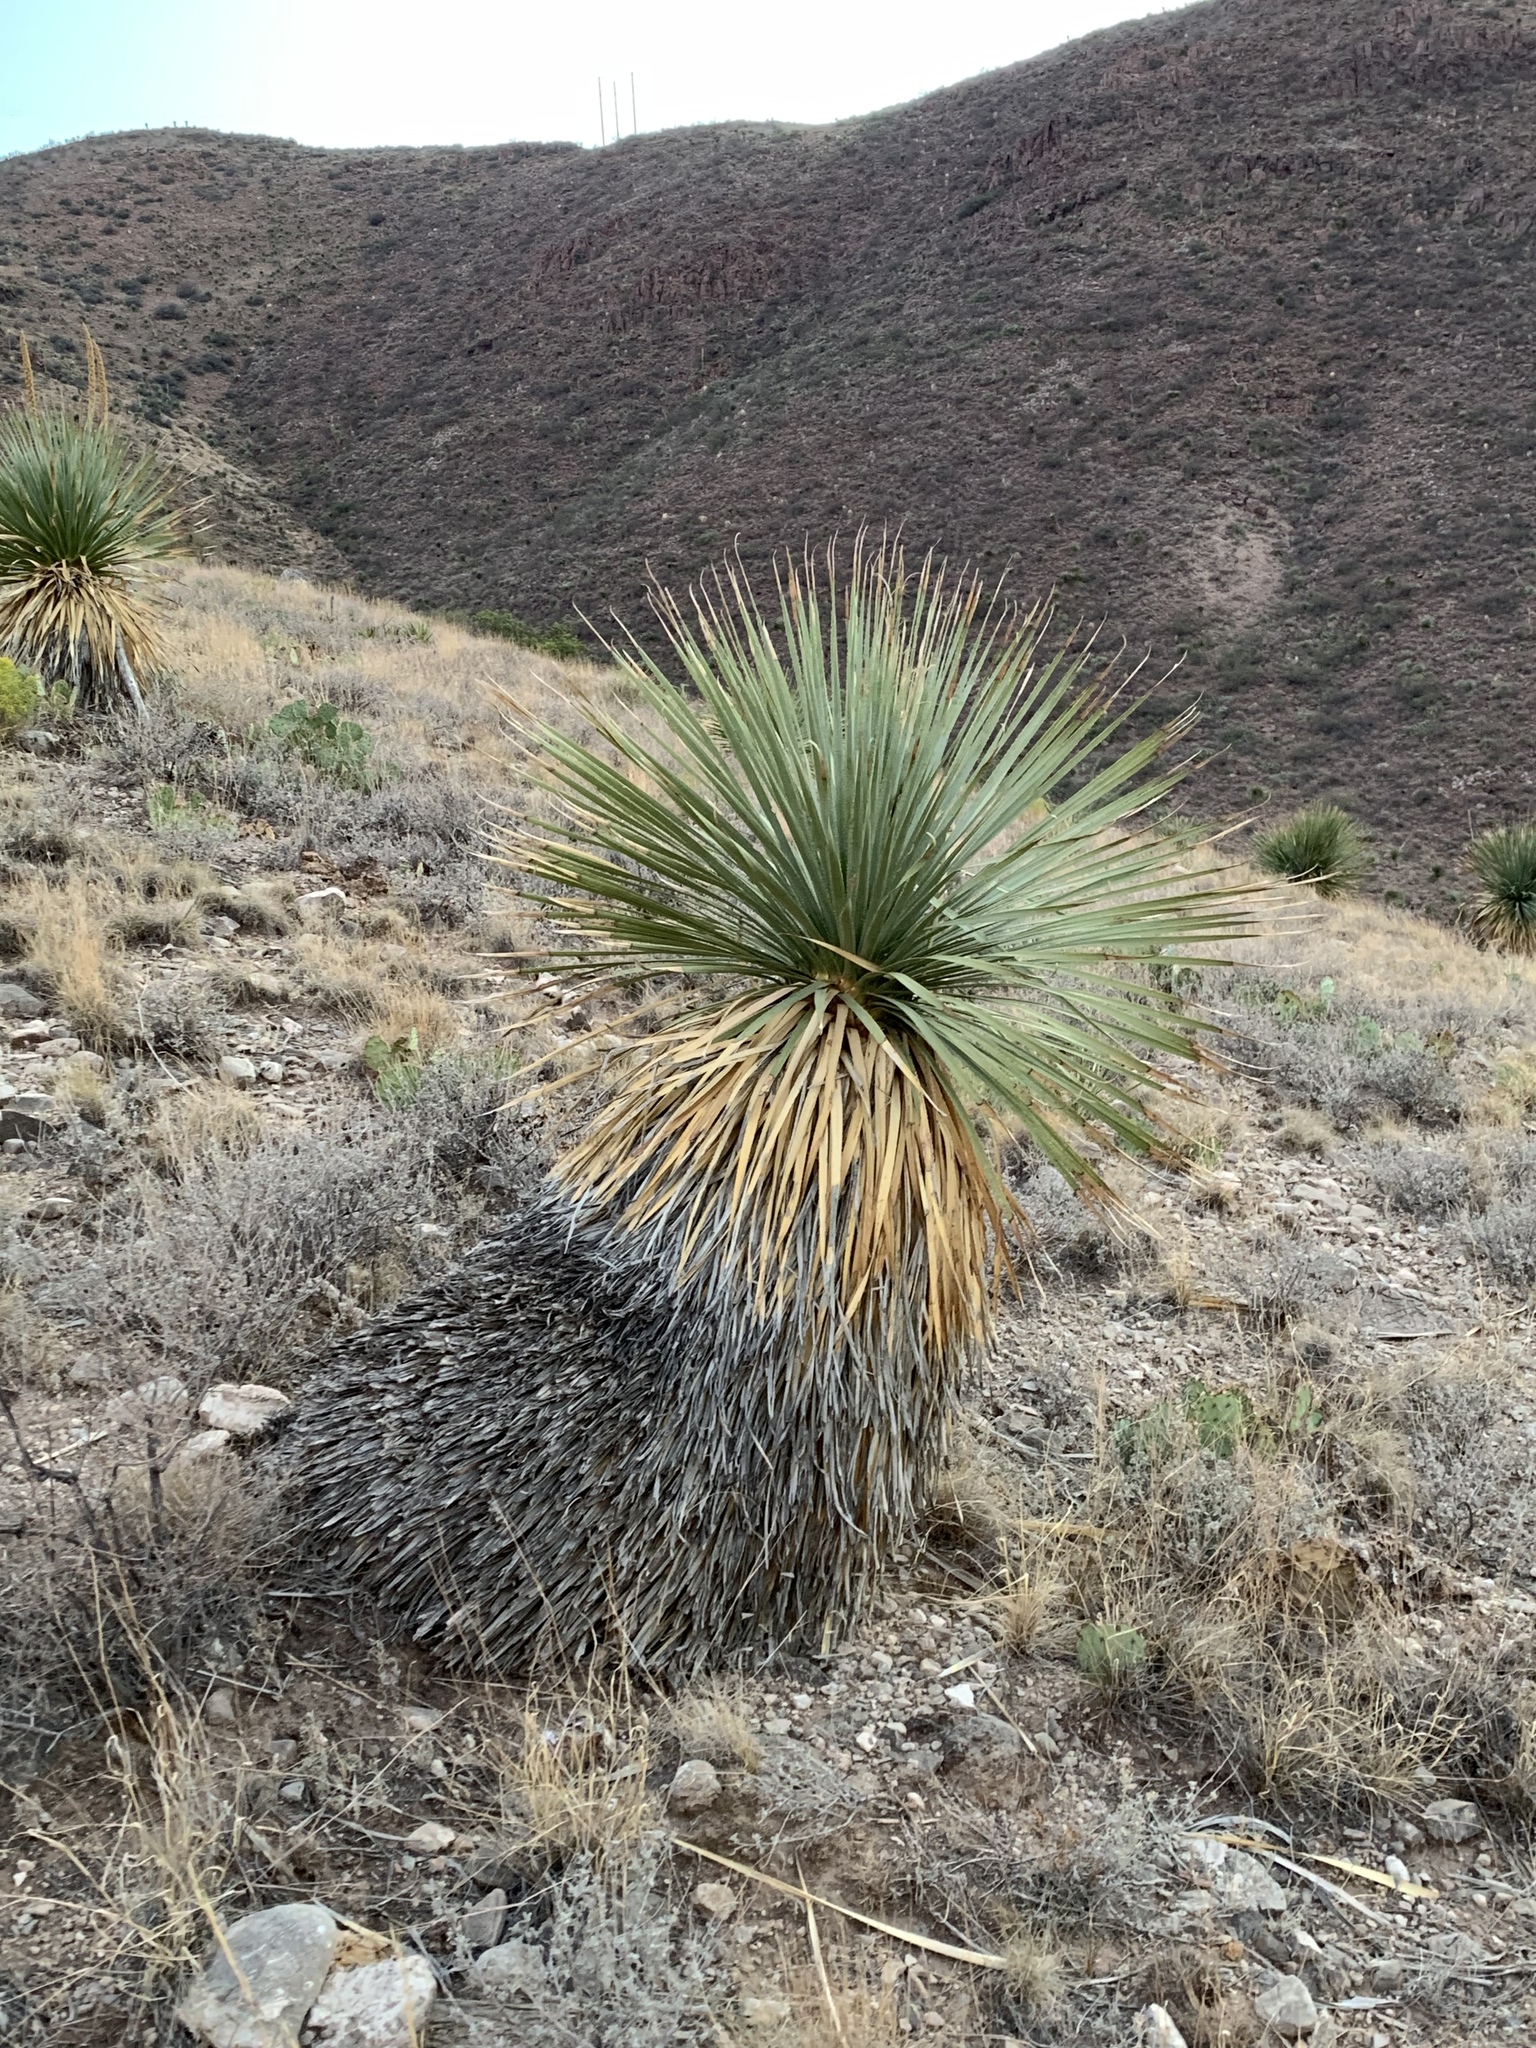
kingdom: Plantae
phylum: Tracheophyta
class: Liliopsida
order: Asparagales
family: Asparagaceae
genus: Dasylirion
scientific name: Dasylirion wheeleri
